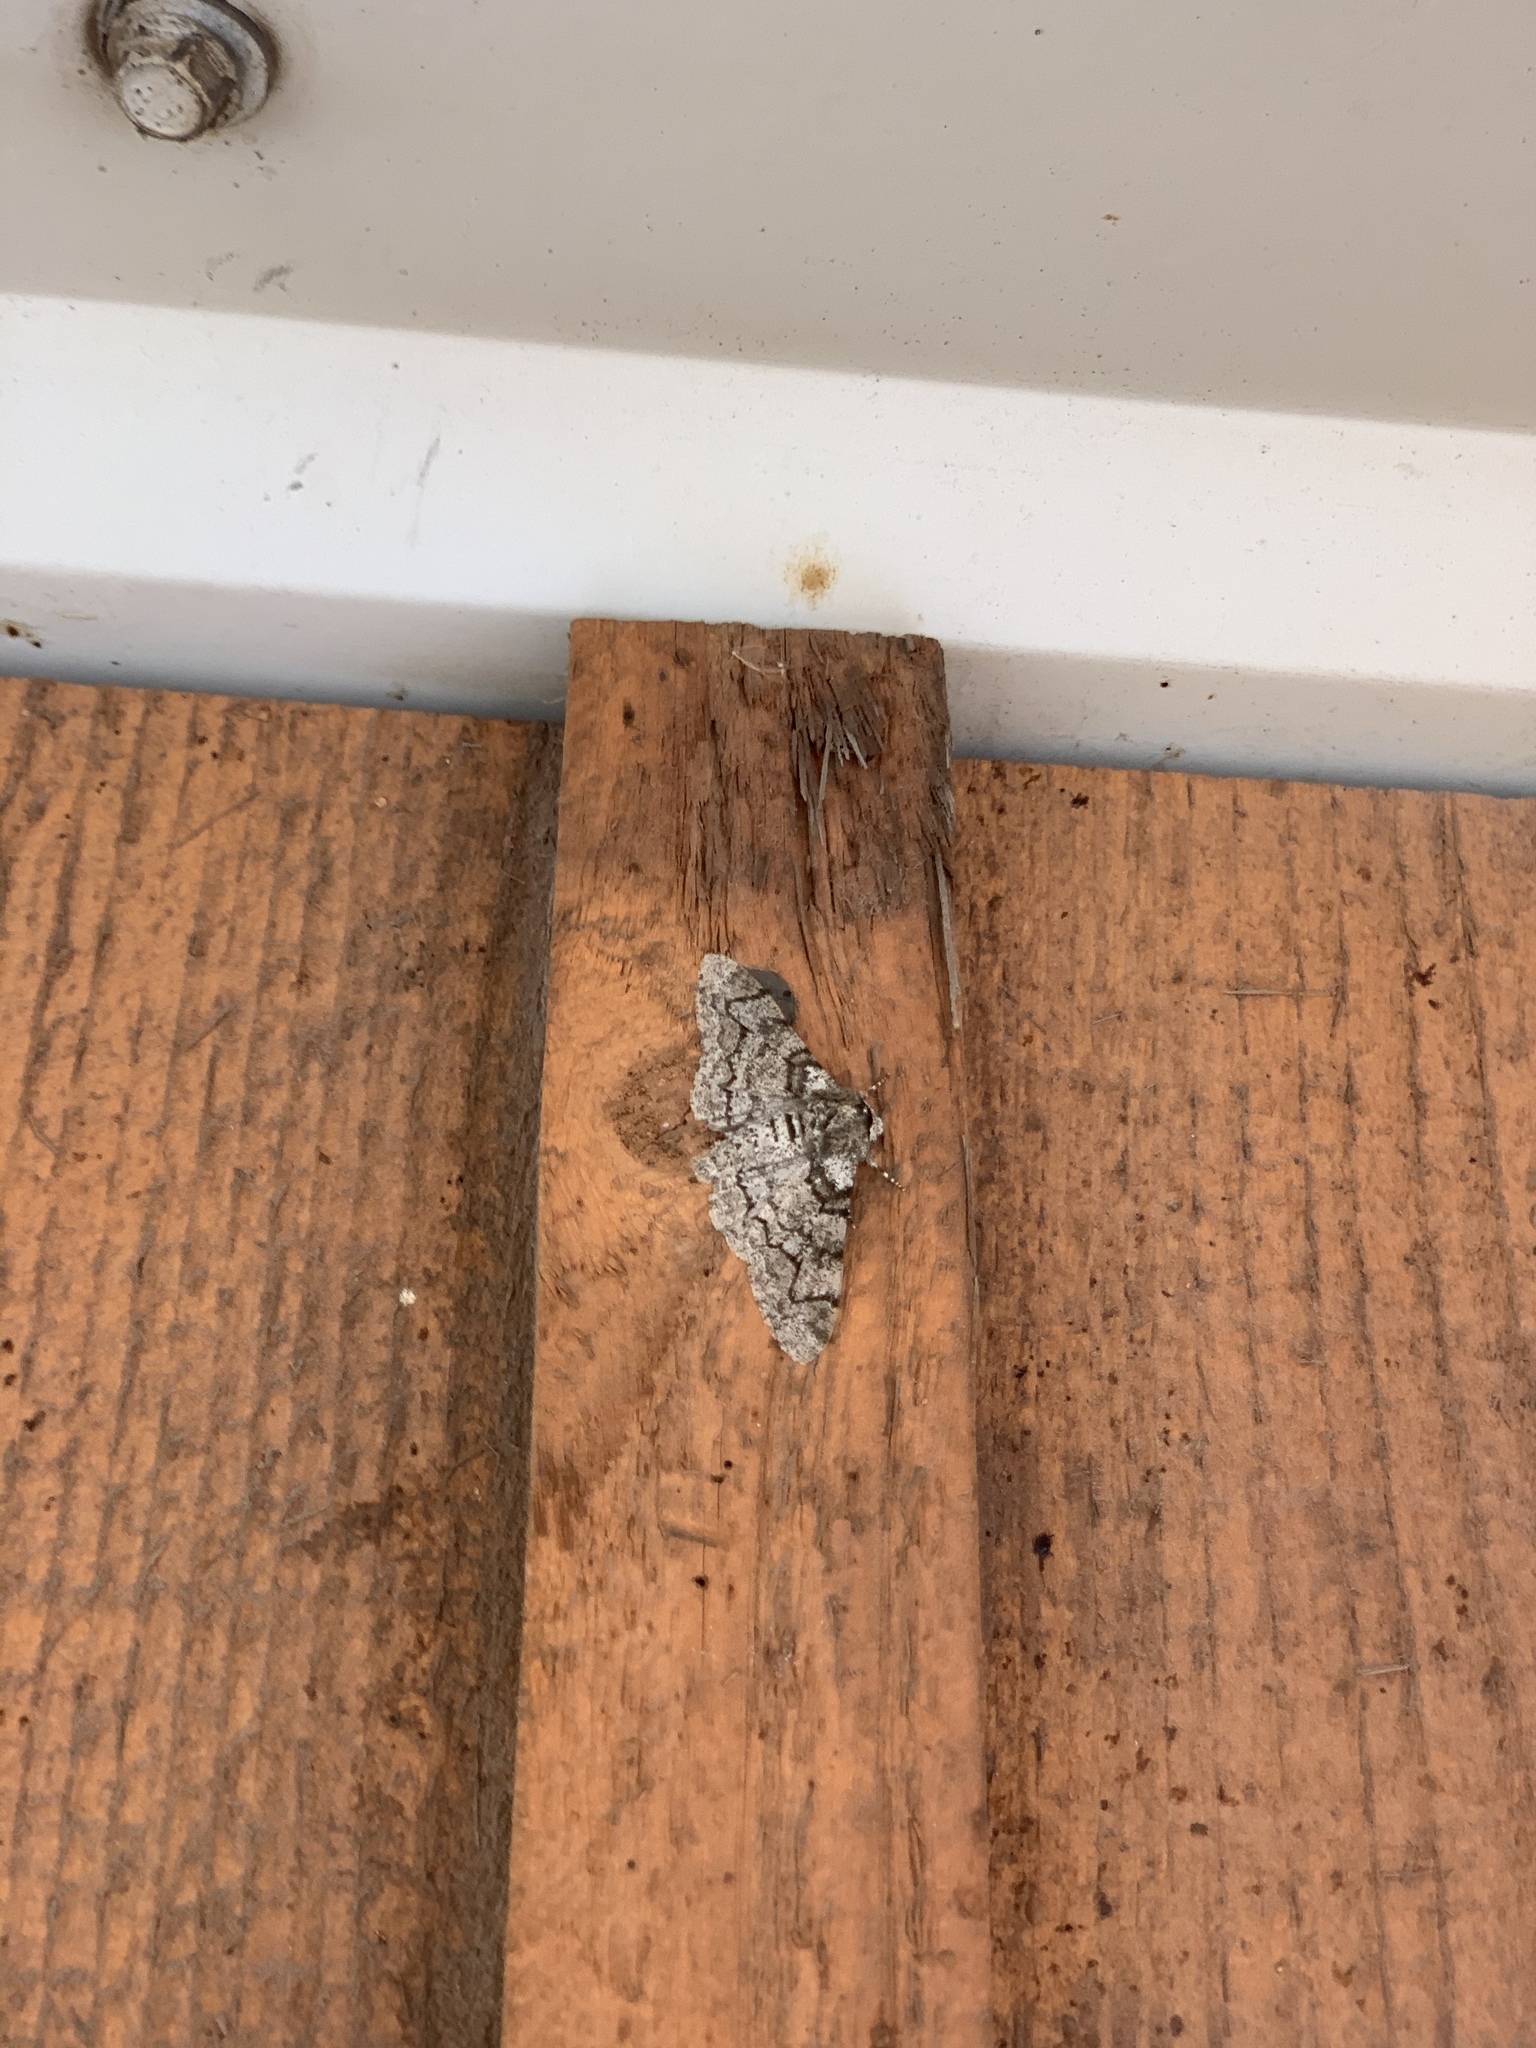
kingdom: Animalia
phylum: Arthropoda
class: Insecta
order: Lepidoptera
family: Geometridae
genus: Biston
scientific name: Biston betularia
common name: Peppered moth
